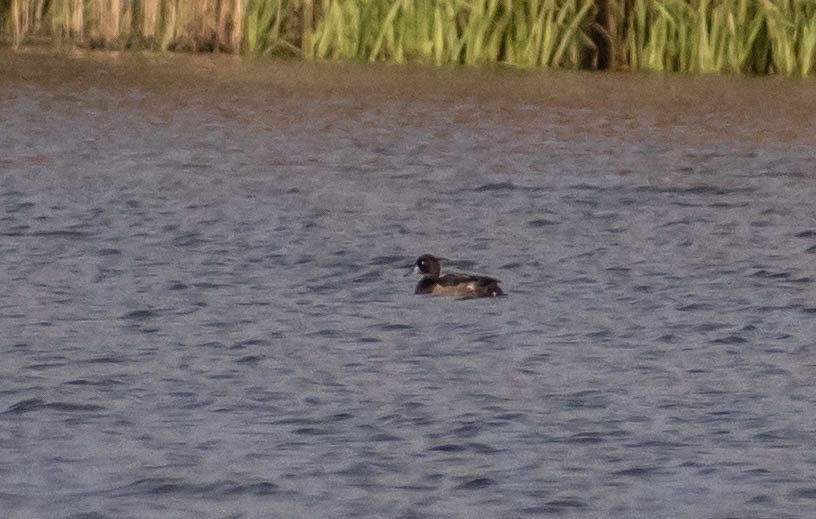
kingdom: Animalia
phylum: Chordata
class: Aves
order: Anseriformes
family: Anatidae
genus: Aythya
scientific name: Aythya fuligula
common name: Tufted duck
